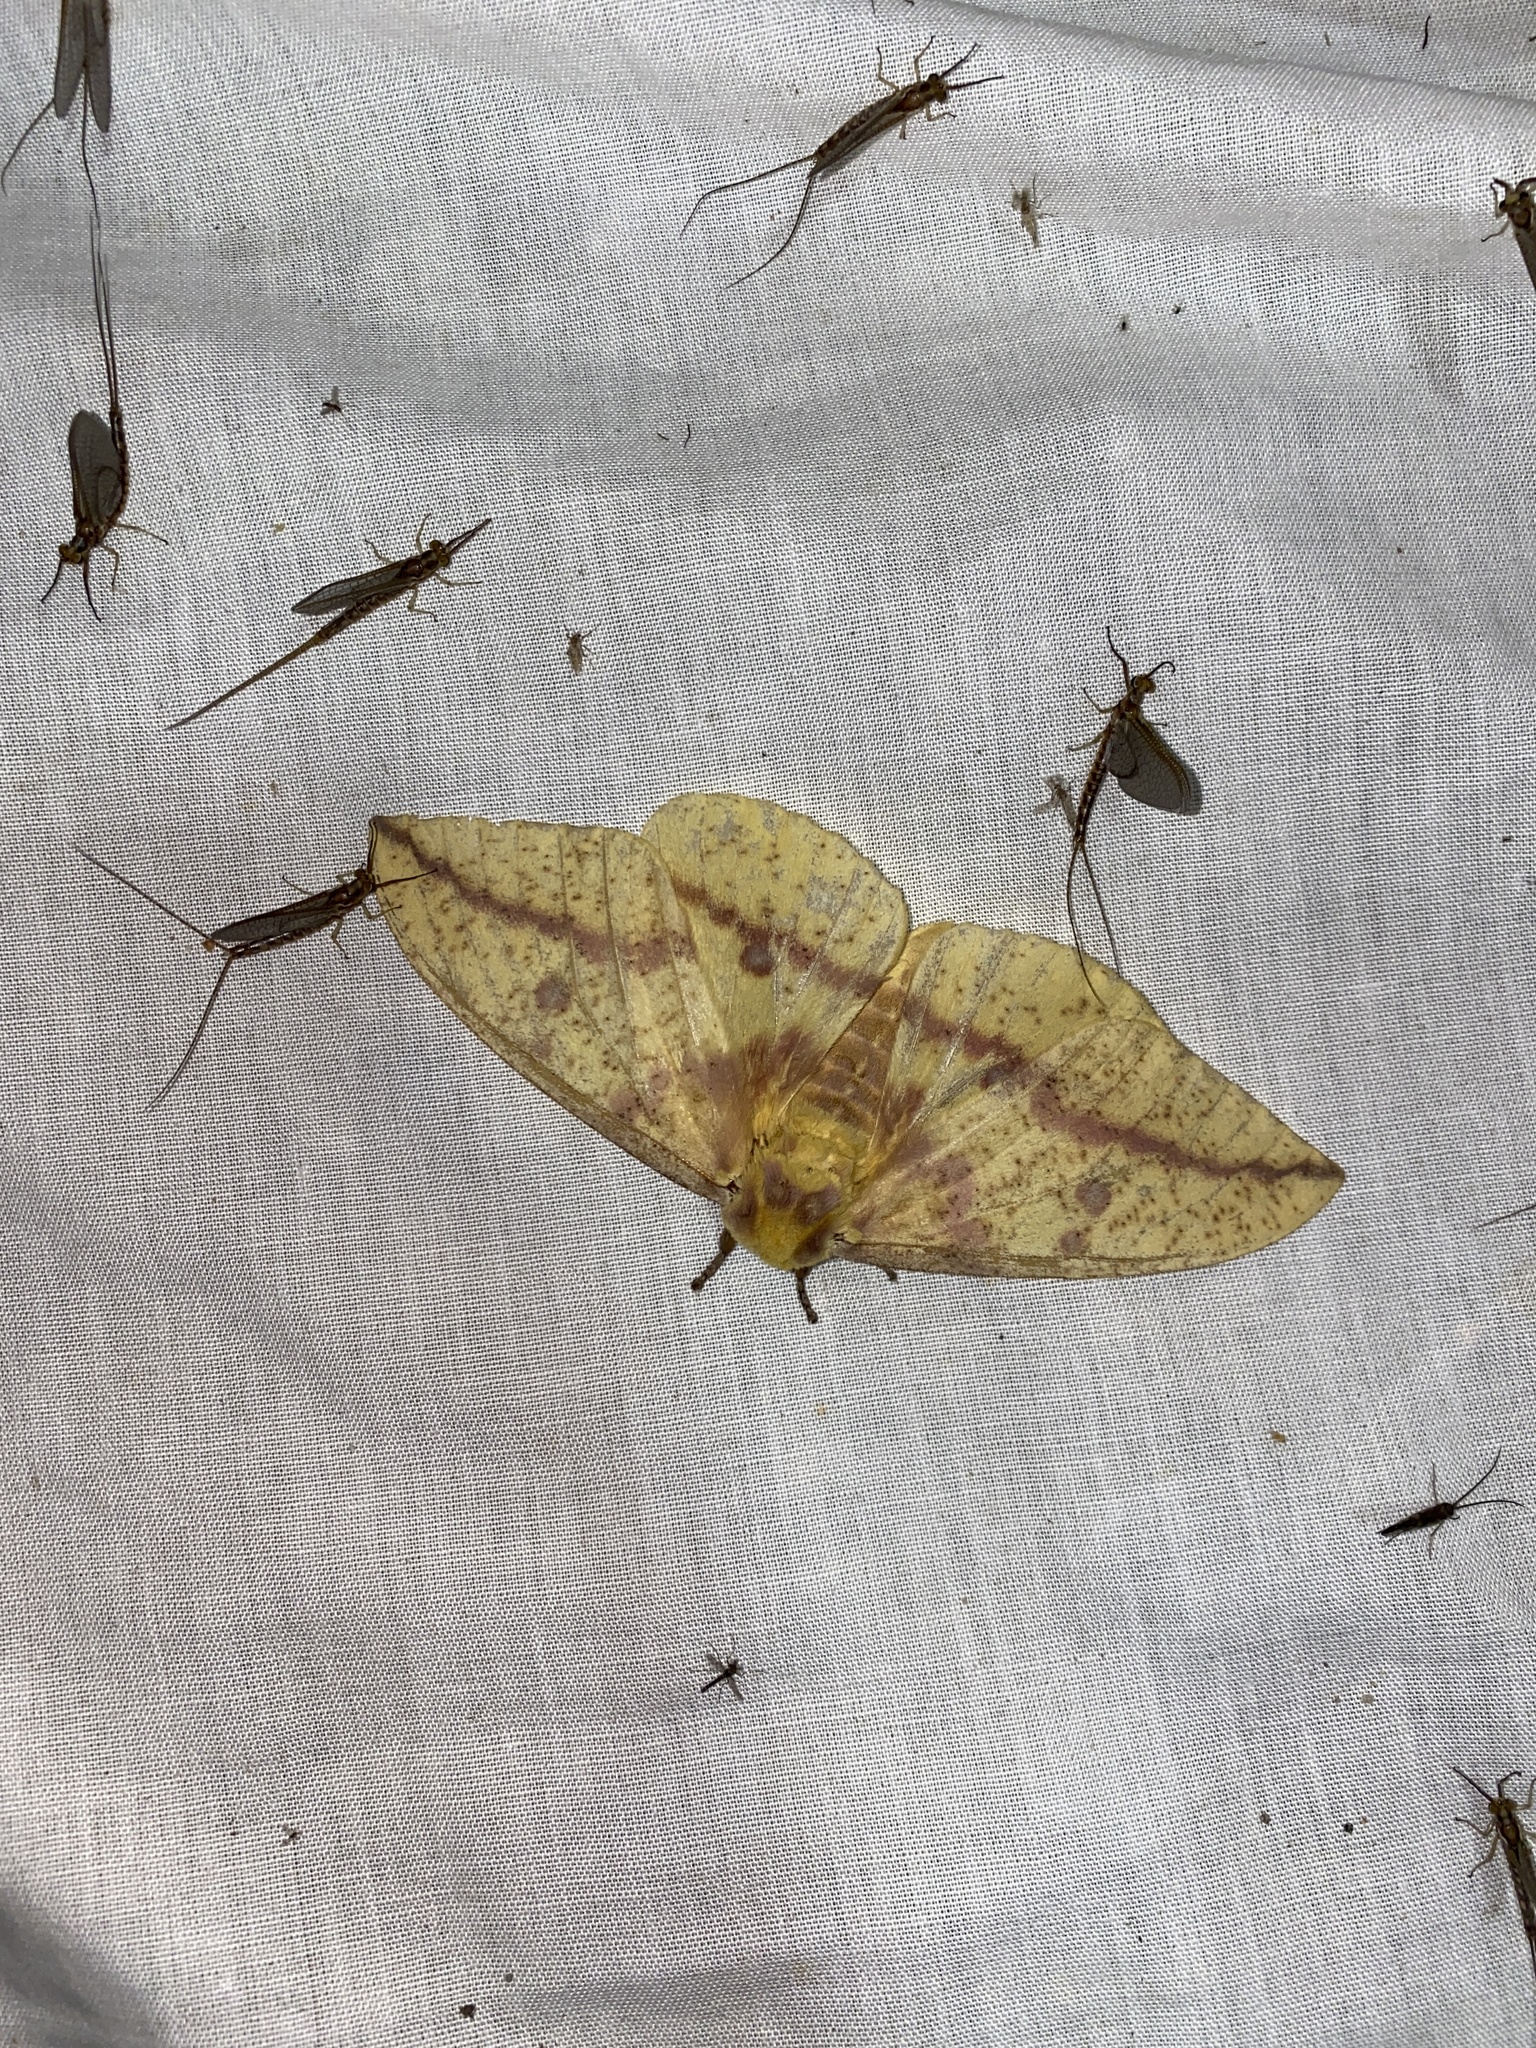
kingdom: Animalia
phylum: Arthropoda
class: Insecta
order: Lepidoptera
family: Saturniidae
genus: Eacles
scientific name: Eacles
